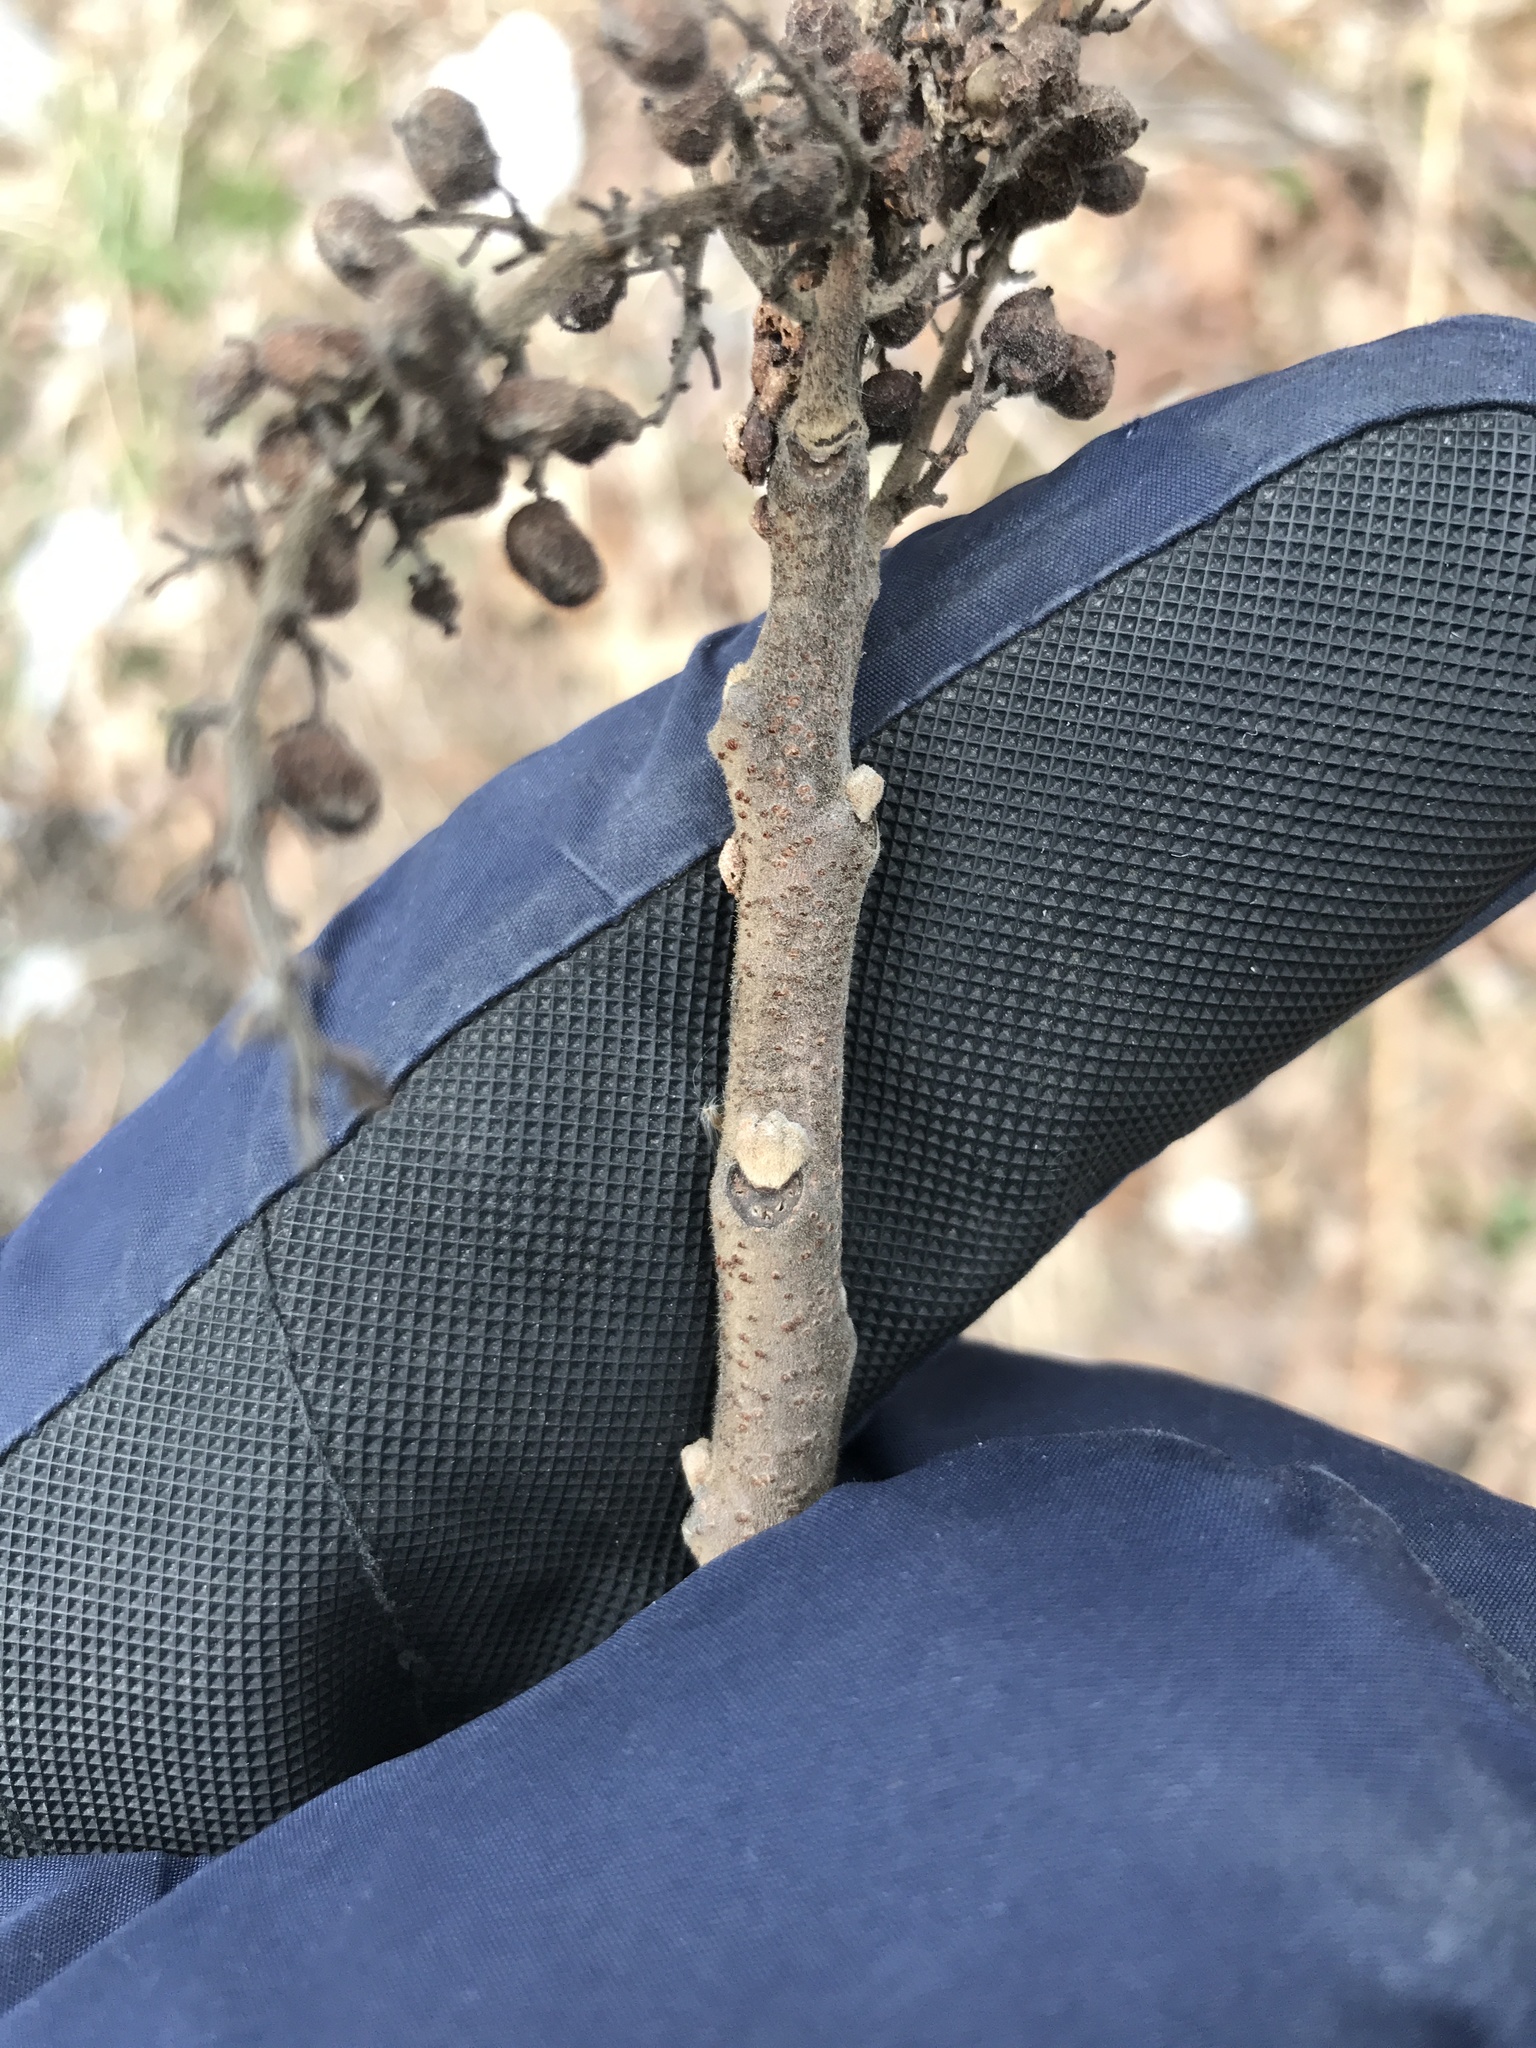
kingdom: Plantae
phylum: Tracheophyta
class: Magnoliopsida
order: Sapindales
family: Anacardiaceae
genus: Rhus
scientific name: Rhus copallina
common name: Shining sumac
